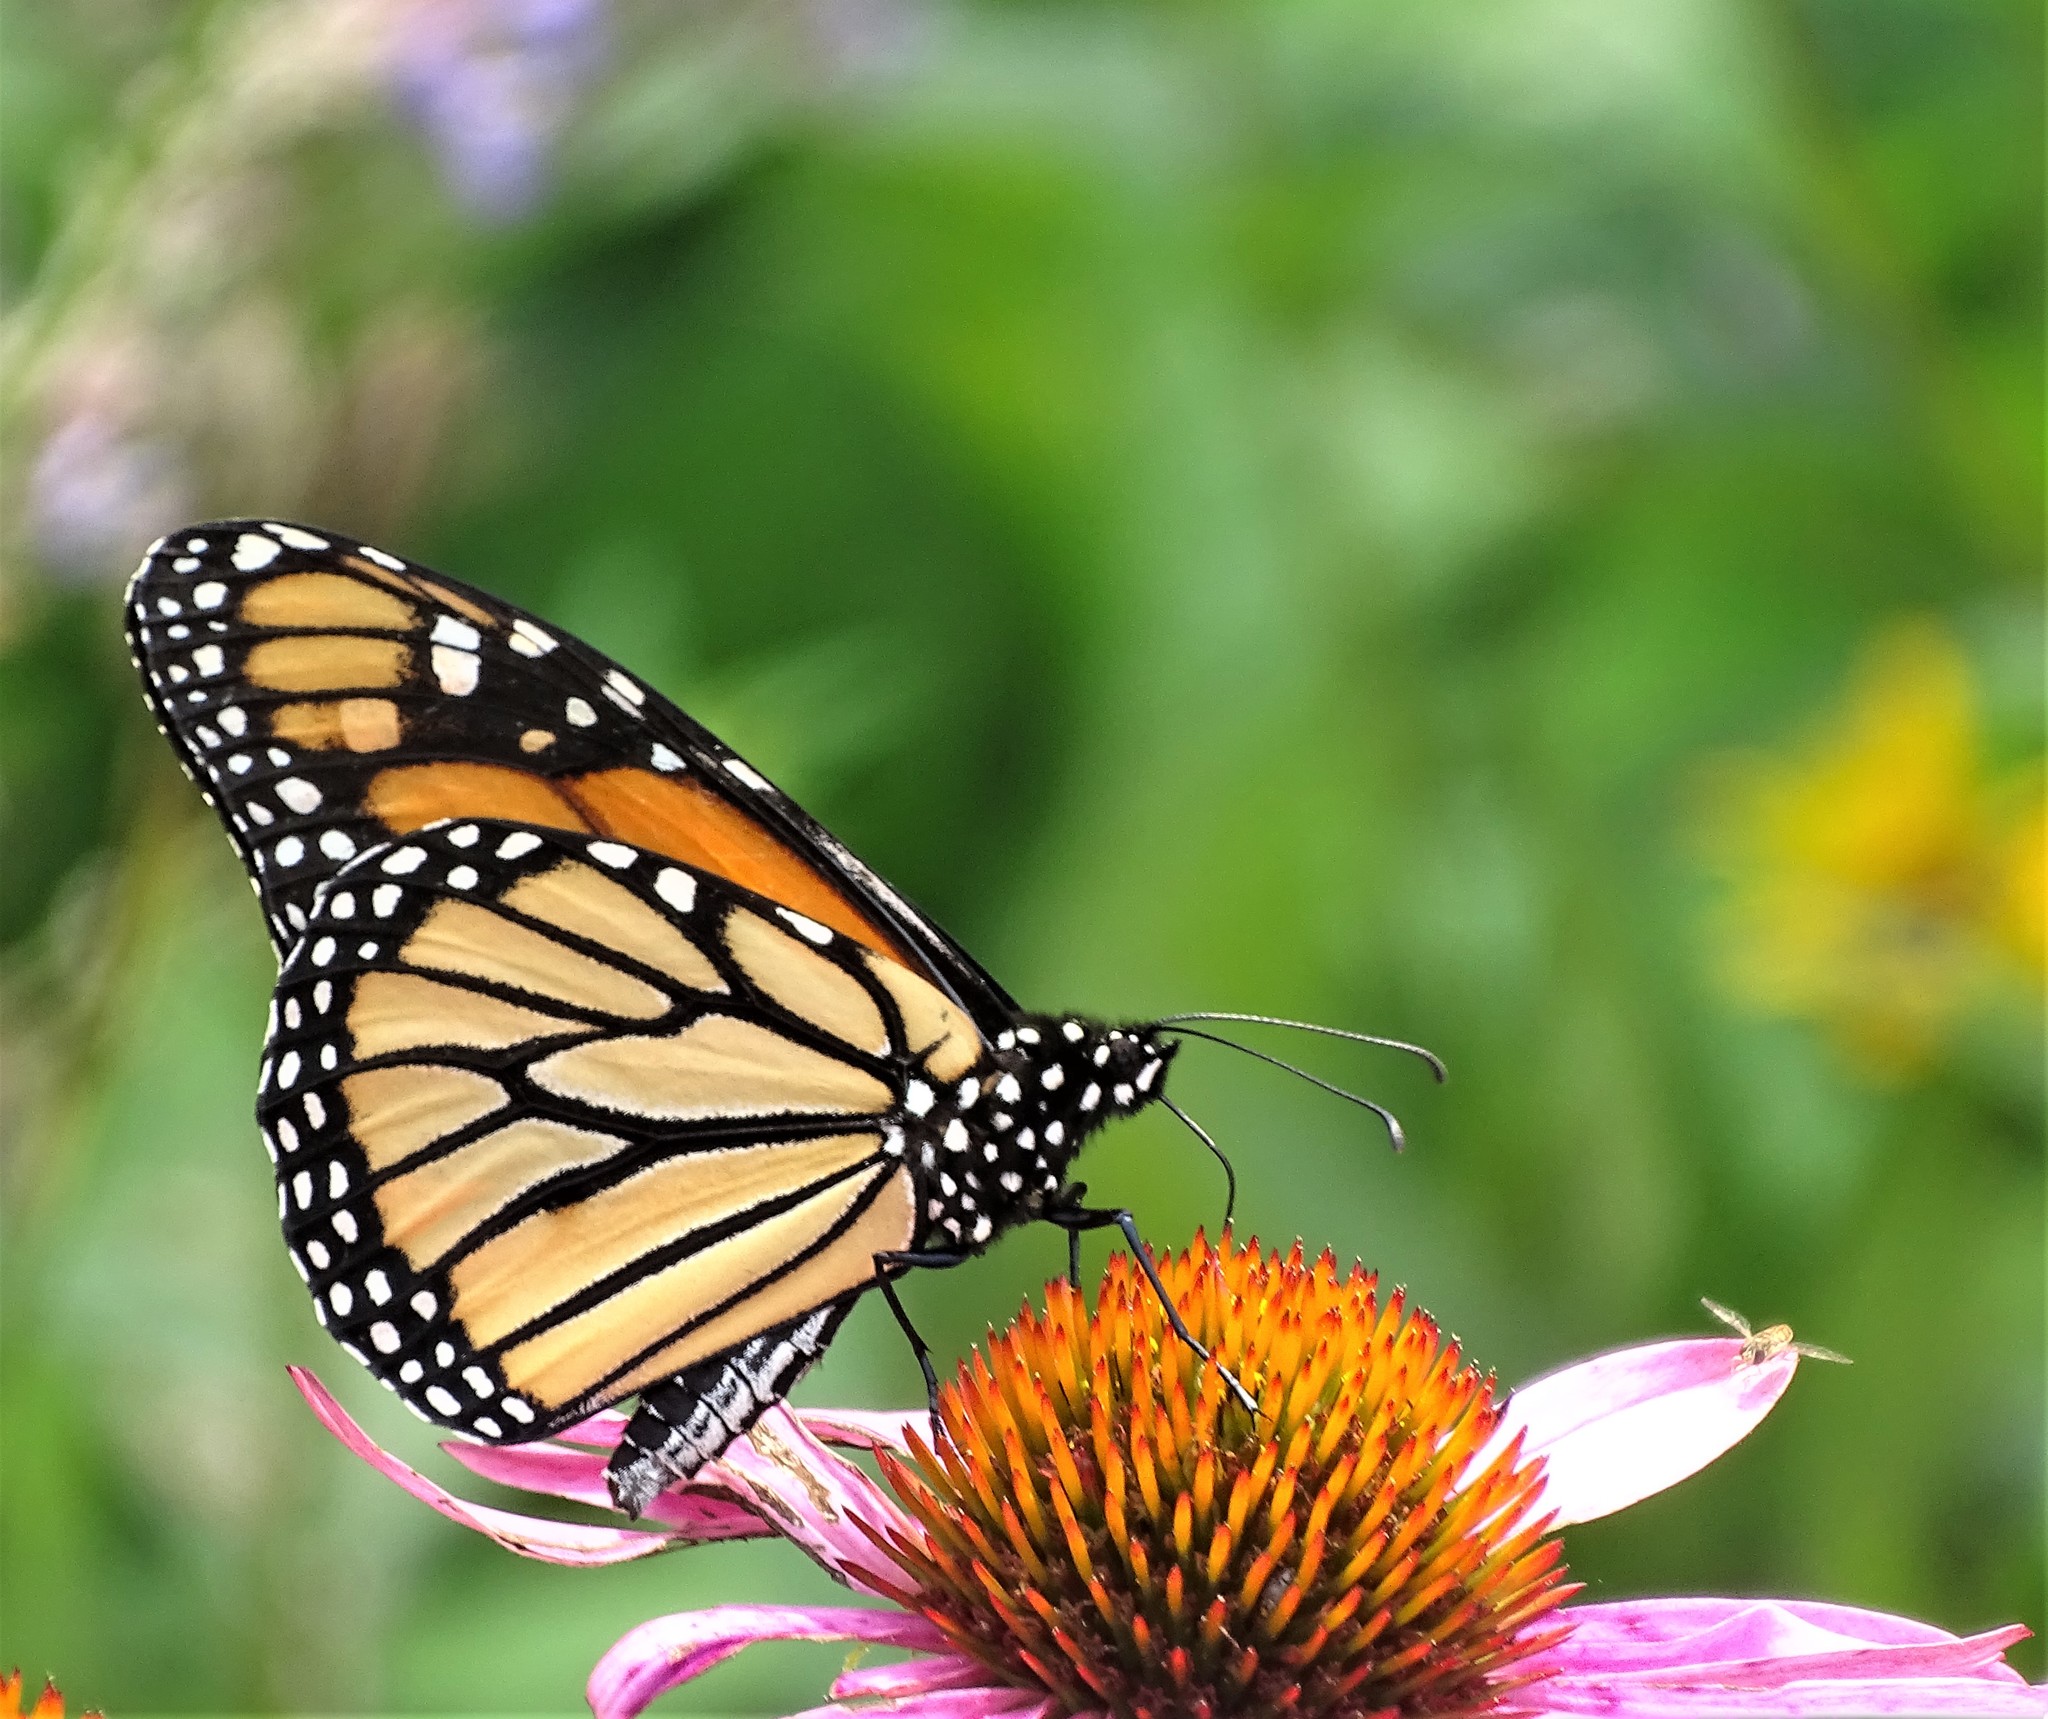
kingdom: Animalia
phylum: Arthropoda
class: Insecta
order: Lepidoptera
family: Nymphalidae
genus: Danaus
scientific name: Danaus plexippus
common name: Monarch
